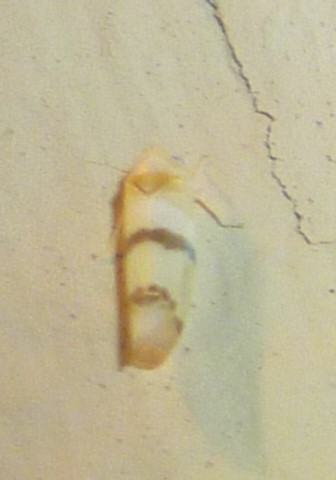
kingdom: Animalia
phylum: Arthropoda
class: Insecta
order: Hemiptera
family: Cicadellidae
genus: Empoa
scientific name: Empoa gillettei
